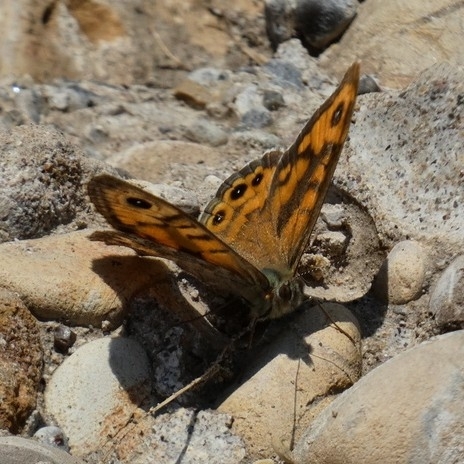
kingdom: Animalia
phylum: Arthropoda
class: Insecta
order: Lepidoptera
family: Nymphalidae
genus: Pararge
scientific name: Pararge Lasiommata megera
